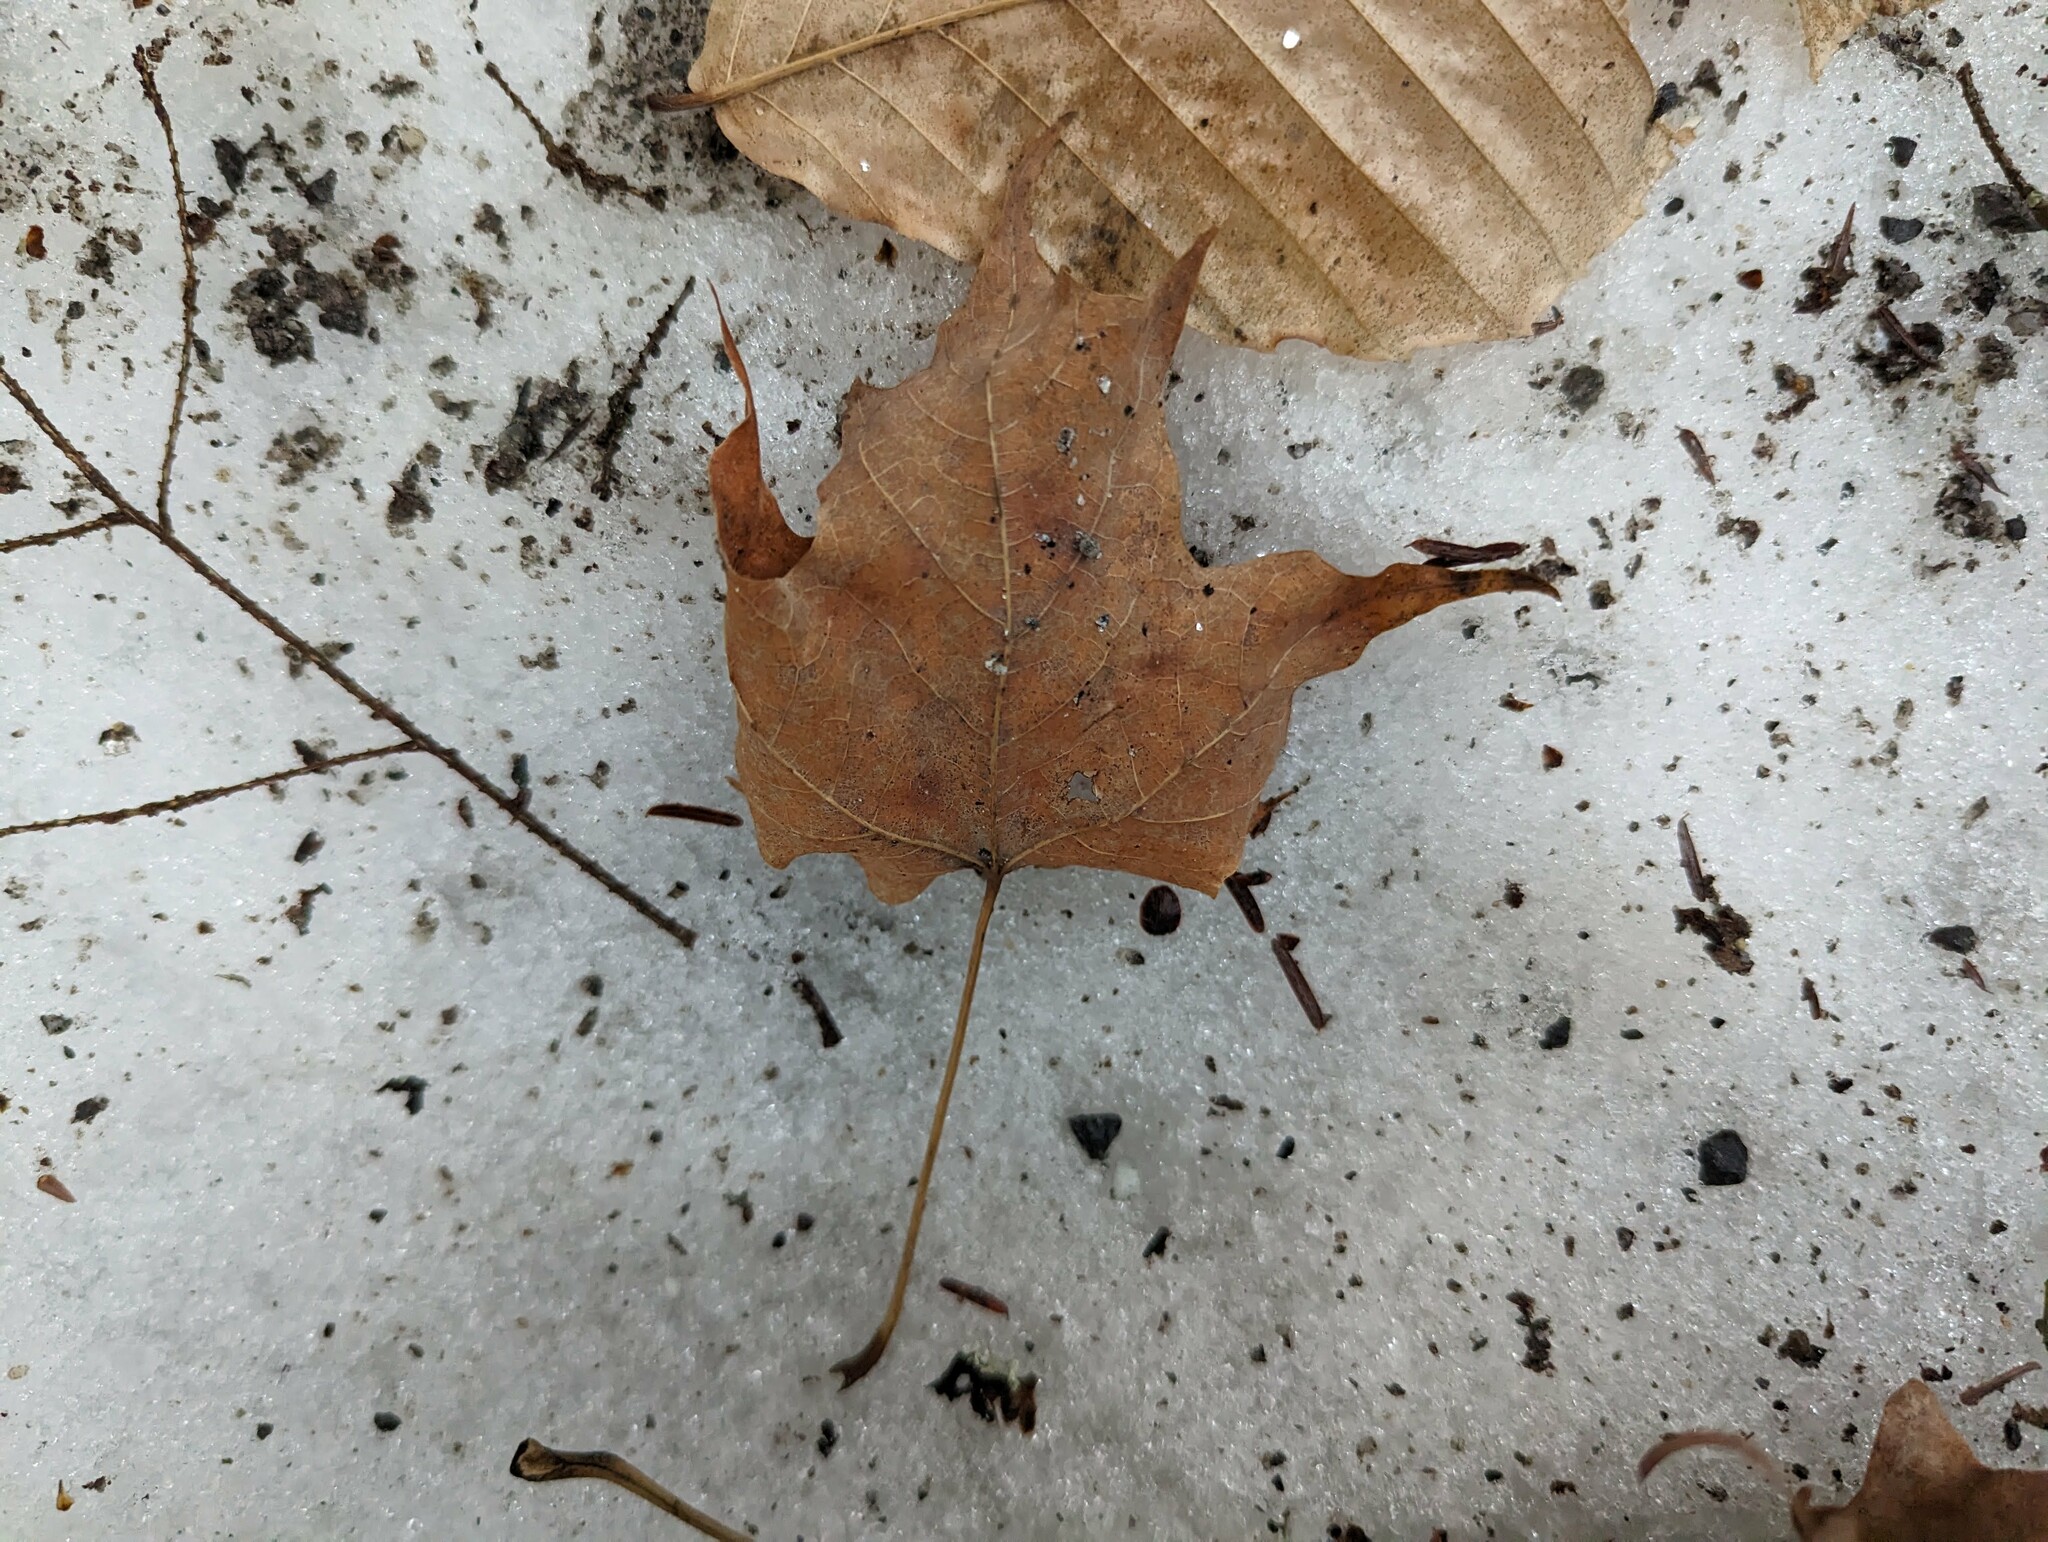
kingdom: Plantae
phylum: Tracheophyta
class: Magnoliopsida
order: Sapindales
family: Sapindaceae
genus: Acer
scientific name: Acer saccharum
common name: Sugar maple
